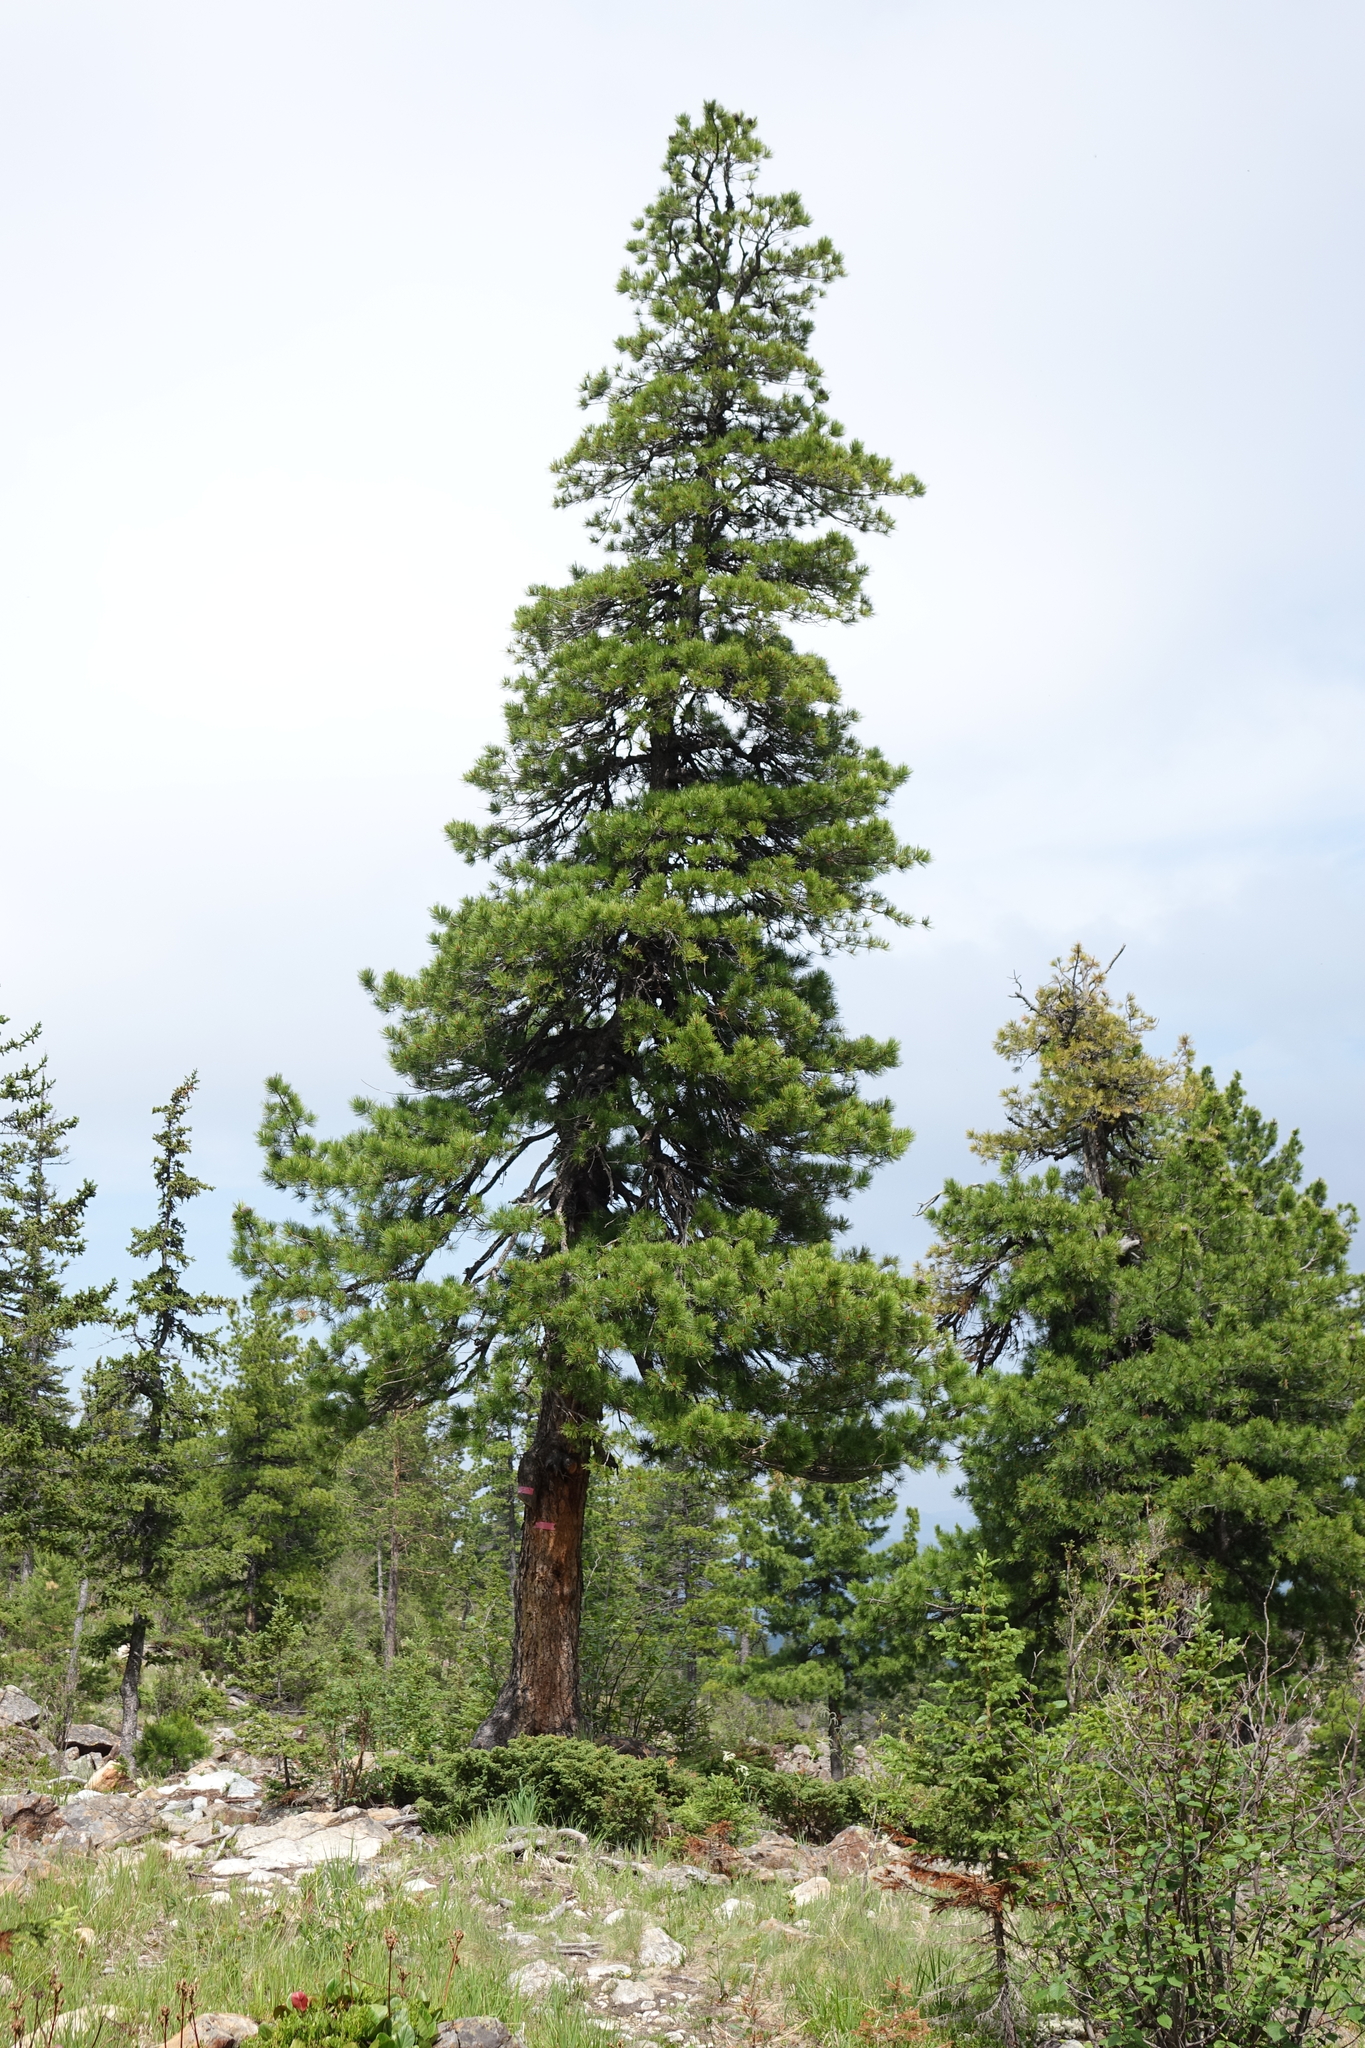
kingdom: Plantae
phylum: Tracheophyta
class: Pinopsida
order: Pinales
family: Pinaceae
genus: Pinus
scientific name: Pinus sibirica
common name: Siberian pine
